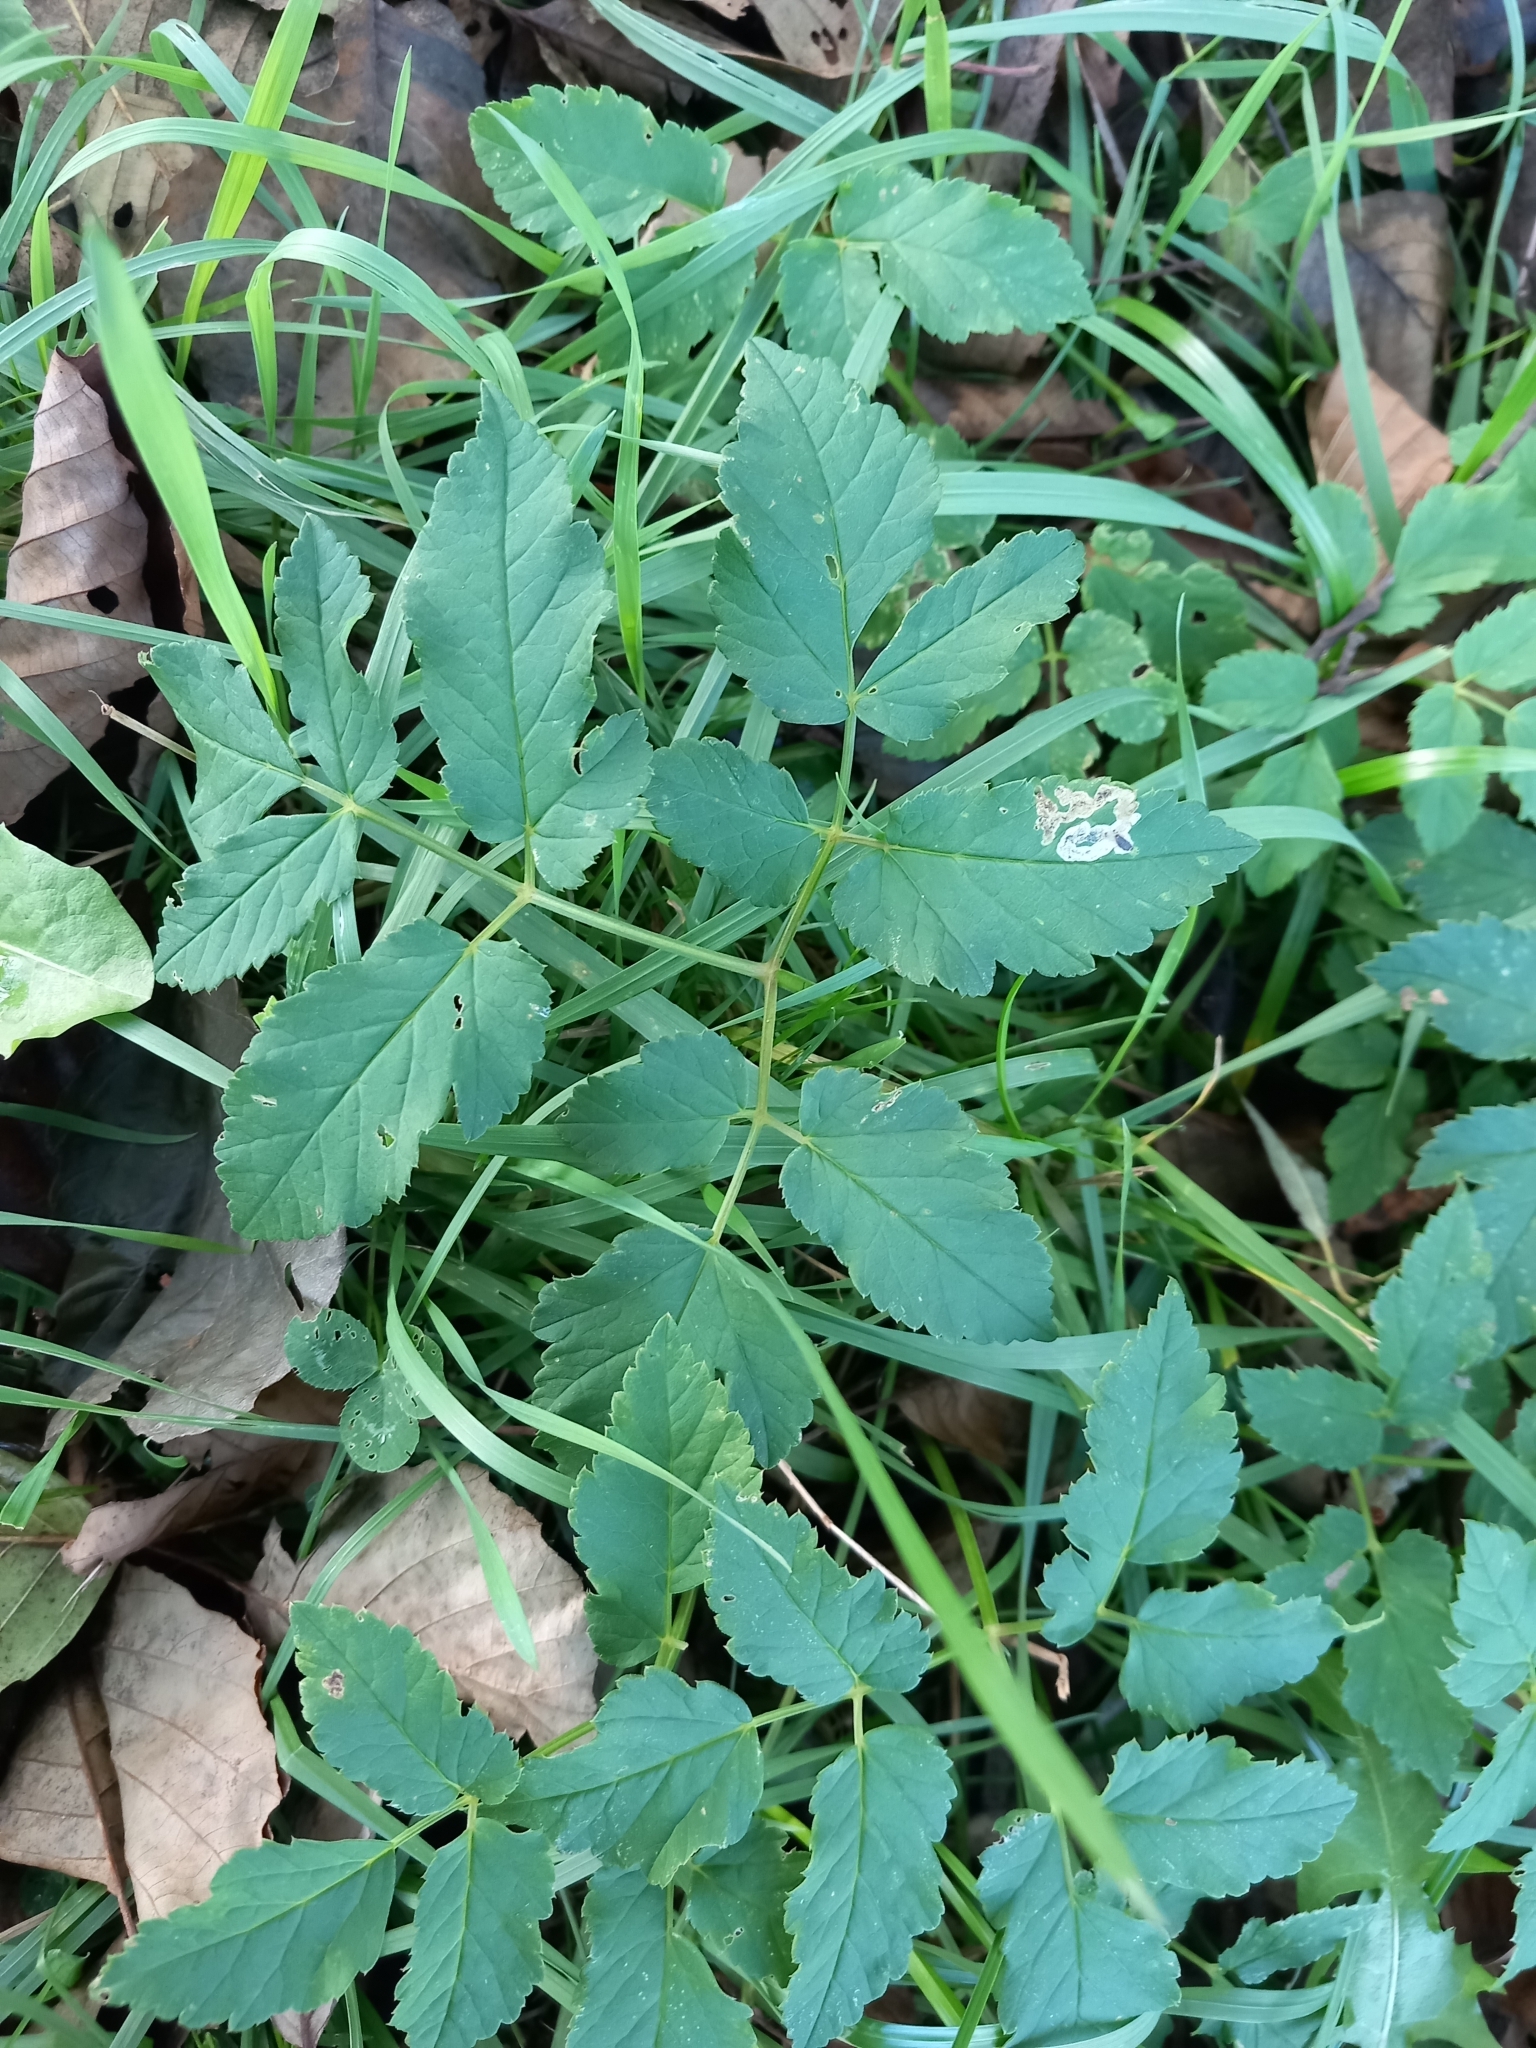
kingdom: Plantae
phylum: Tracheophyta
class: Magnoliopsida
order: Apiales
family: Apiaceae
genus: Aegopodium
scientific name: Aegopodium podagraria
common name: Ground-elder
